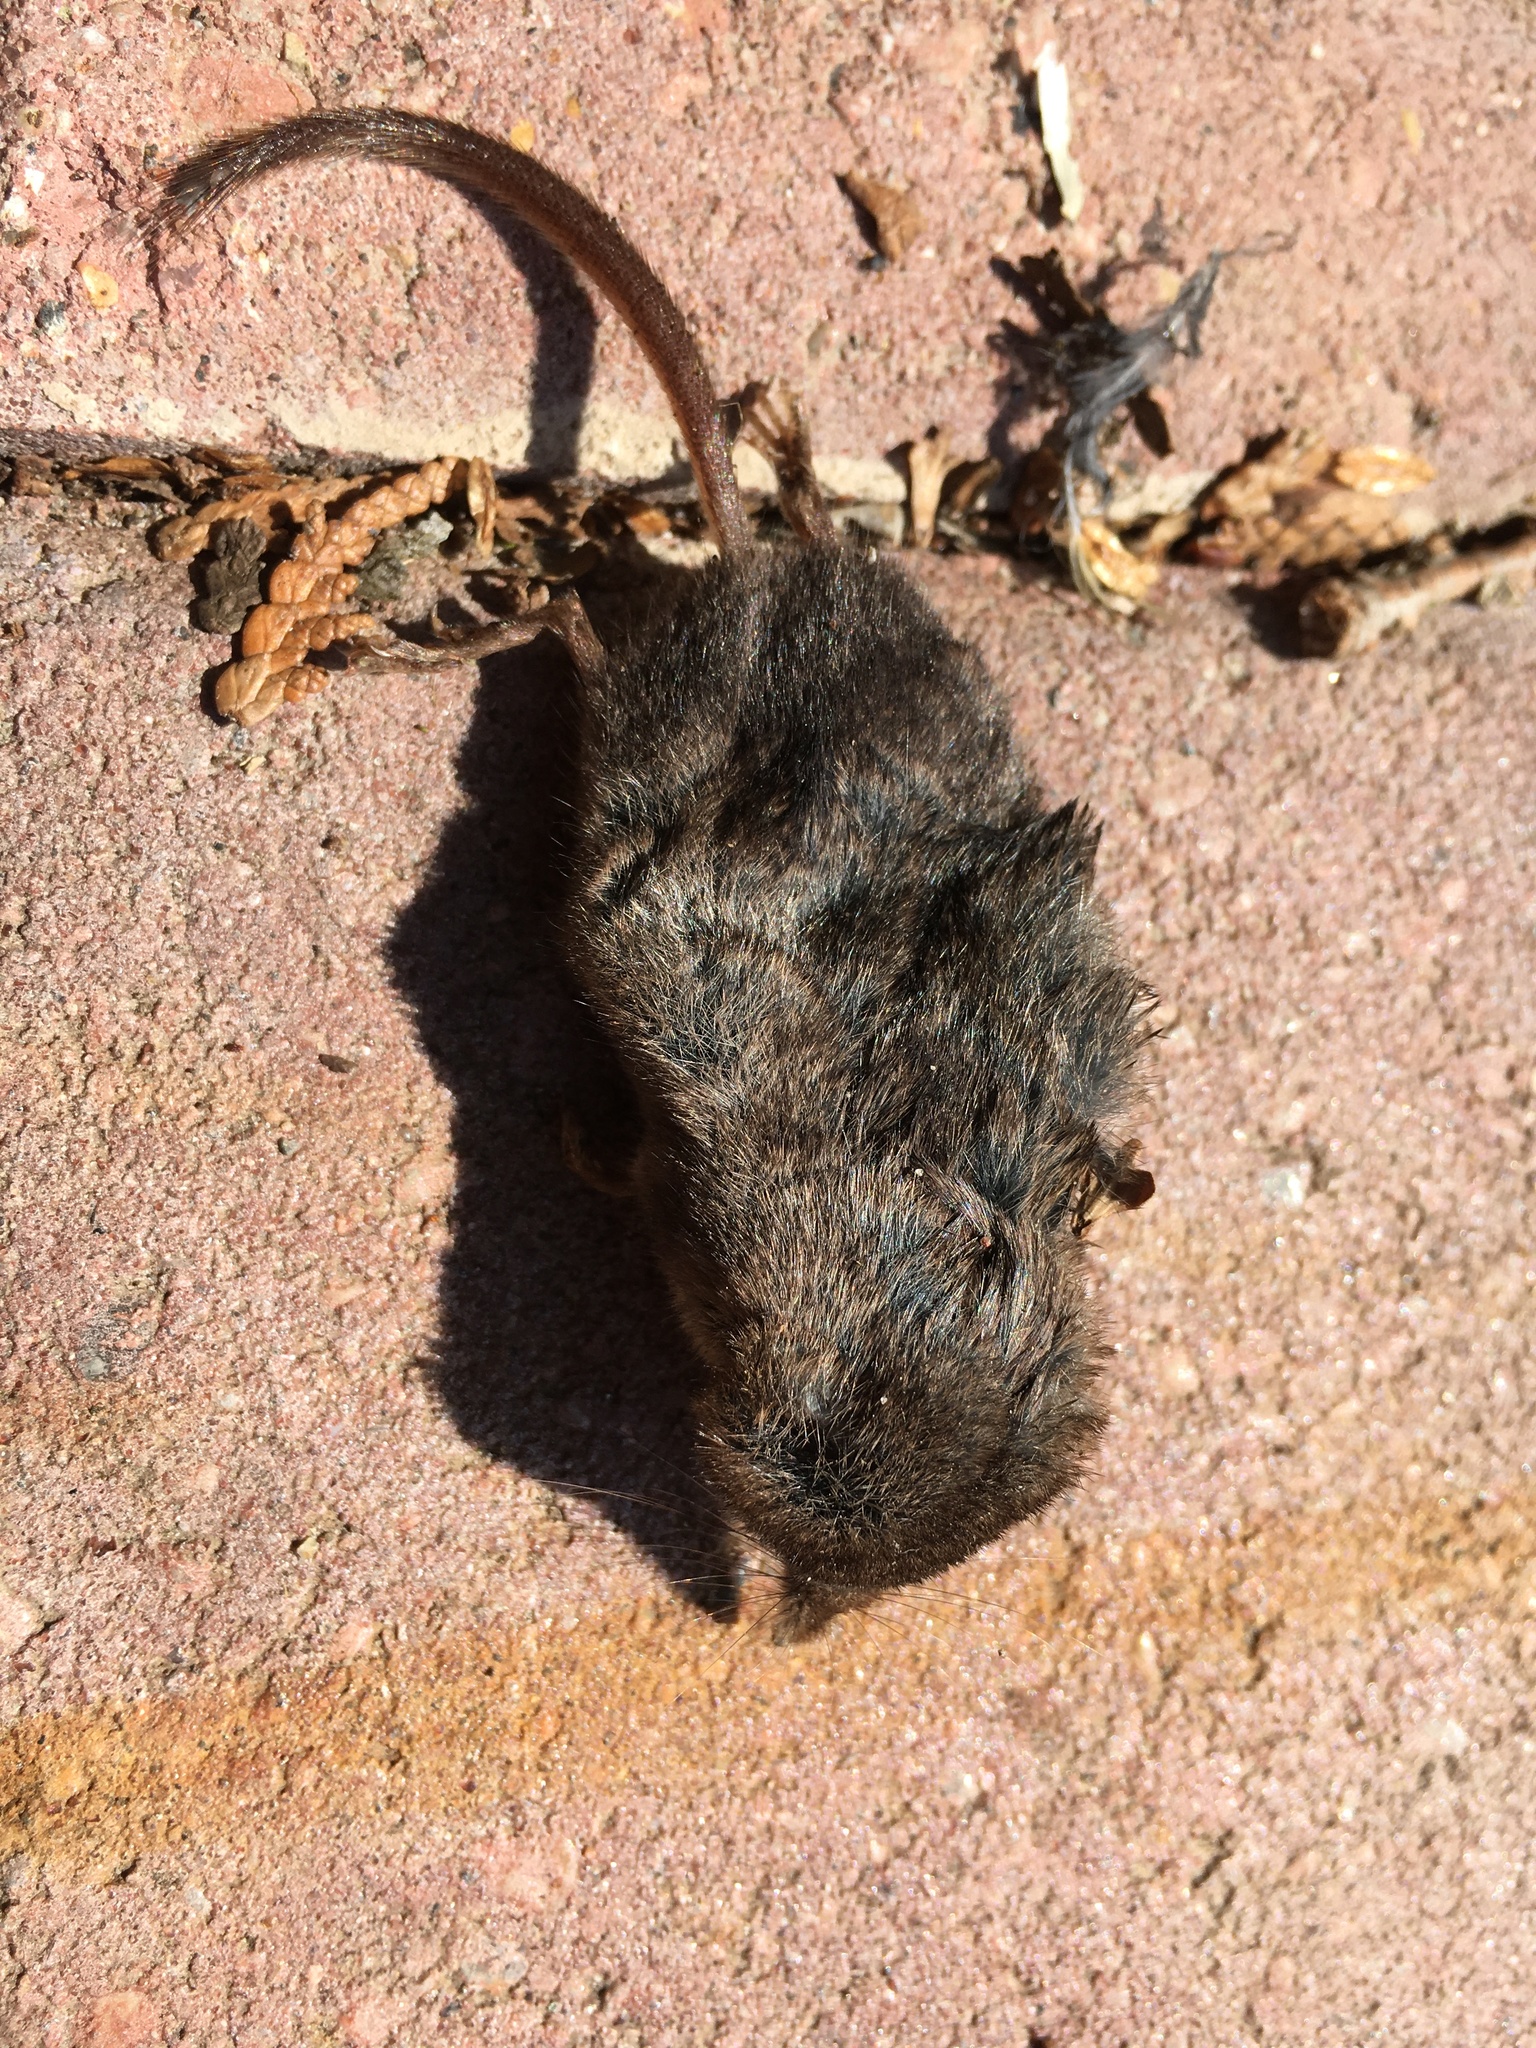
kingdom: Animalia
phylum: Chordata
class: Mammalia
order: Soricomorpha
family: Soricidae
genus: Sorex
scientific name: Sorex cinereus
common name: Cinereus shrew
